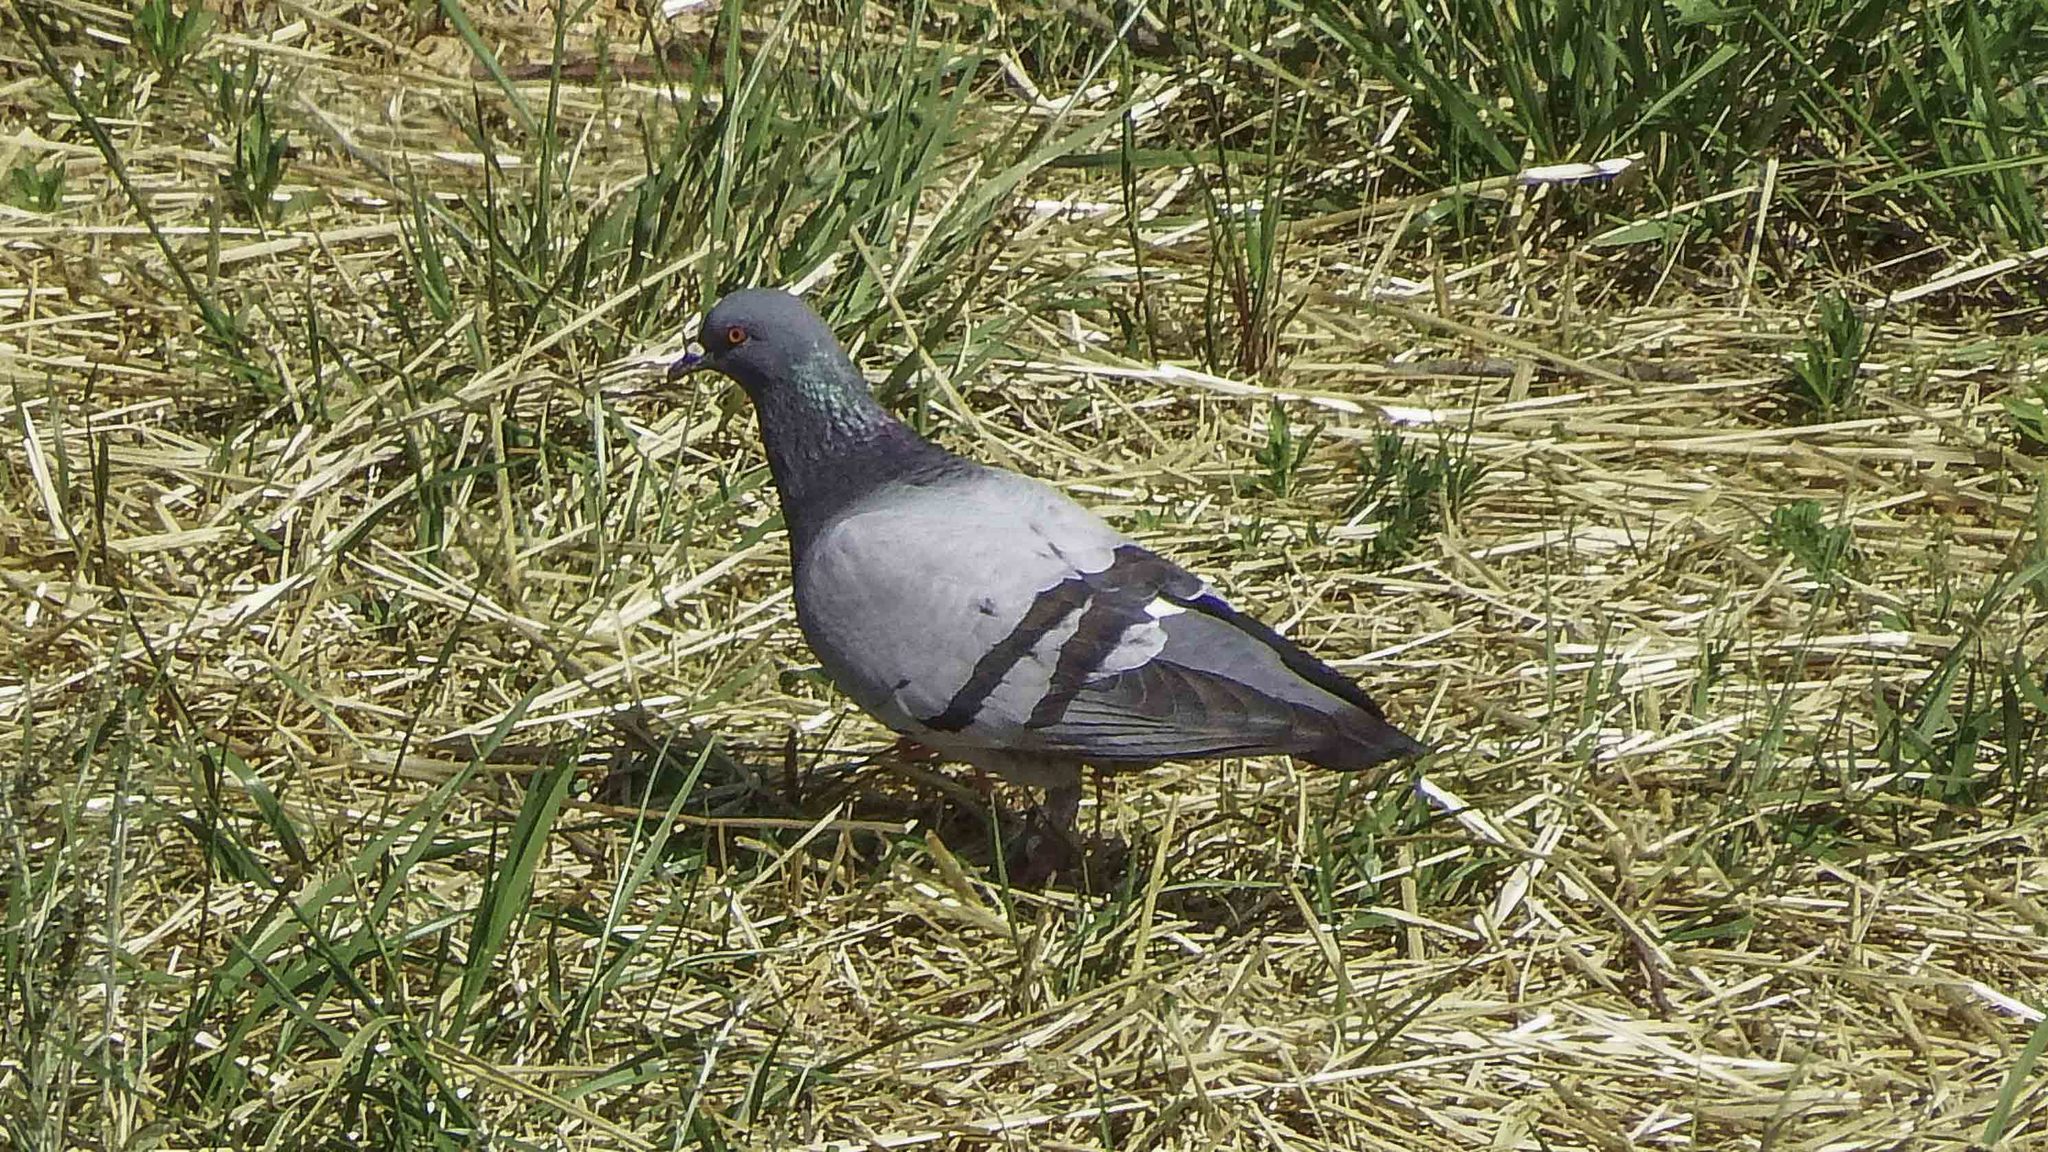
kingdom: Animalia
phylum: Chordata
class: Aves
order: Columbiformes
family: Columbidae
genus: Columba
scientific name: Columba livia
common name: Rock pigeon
